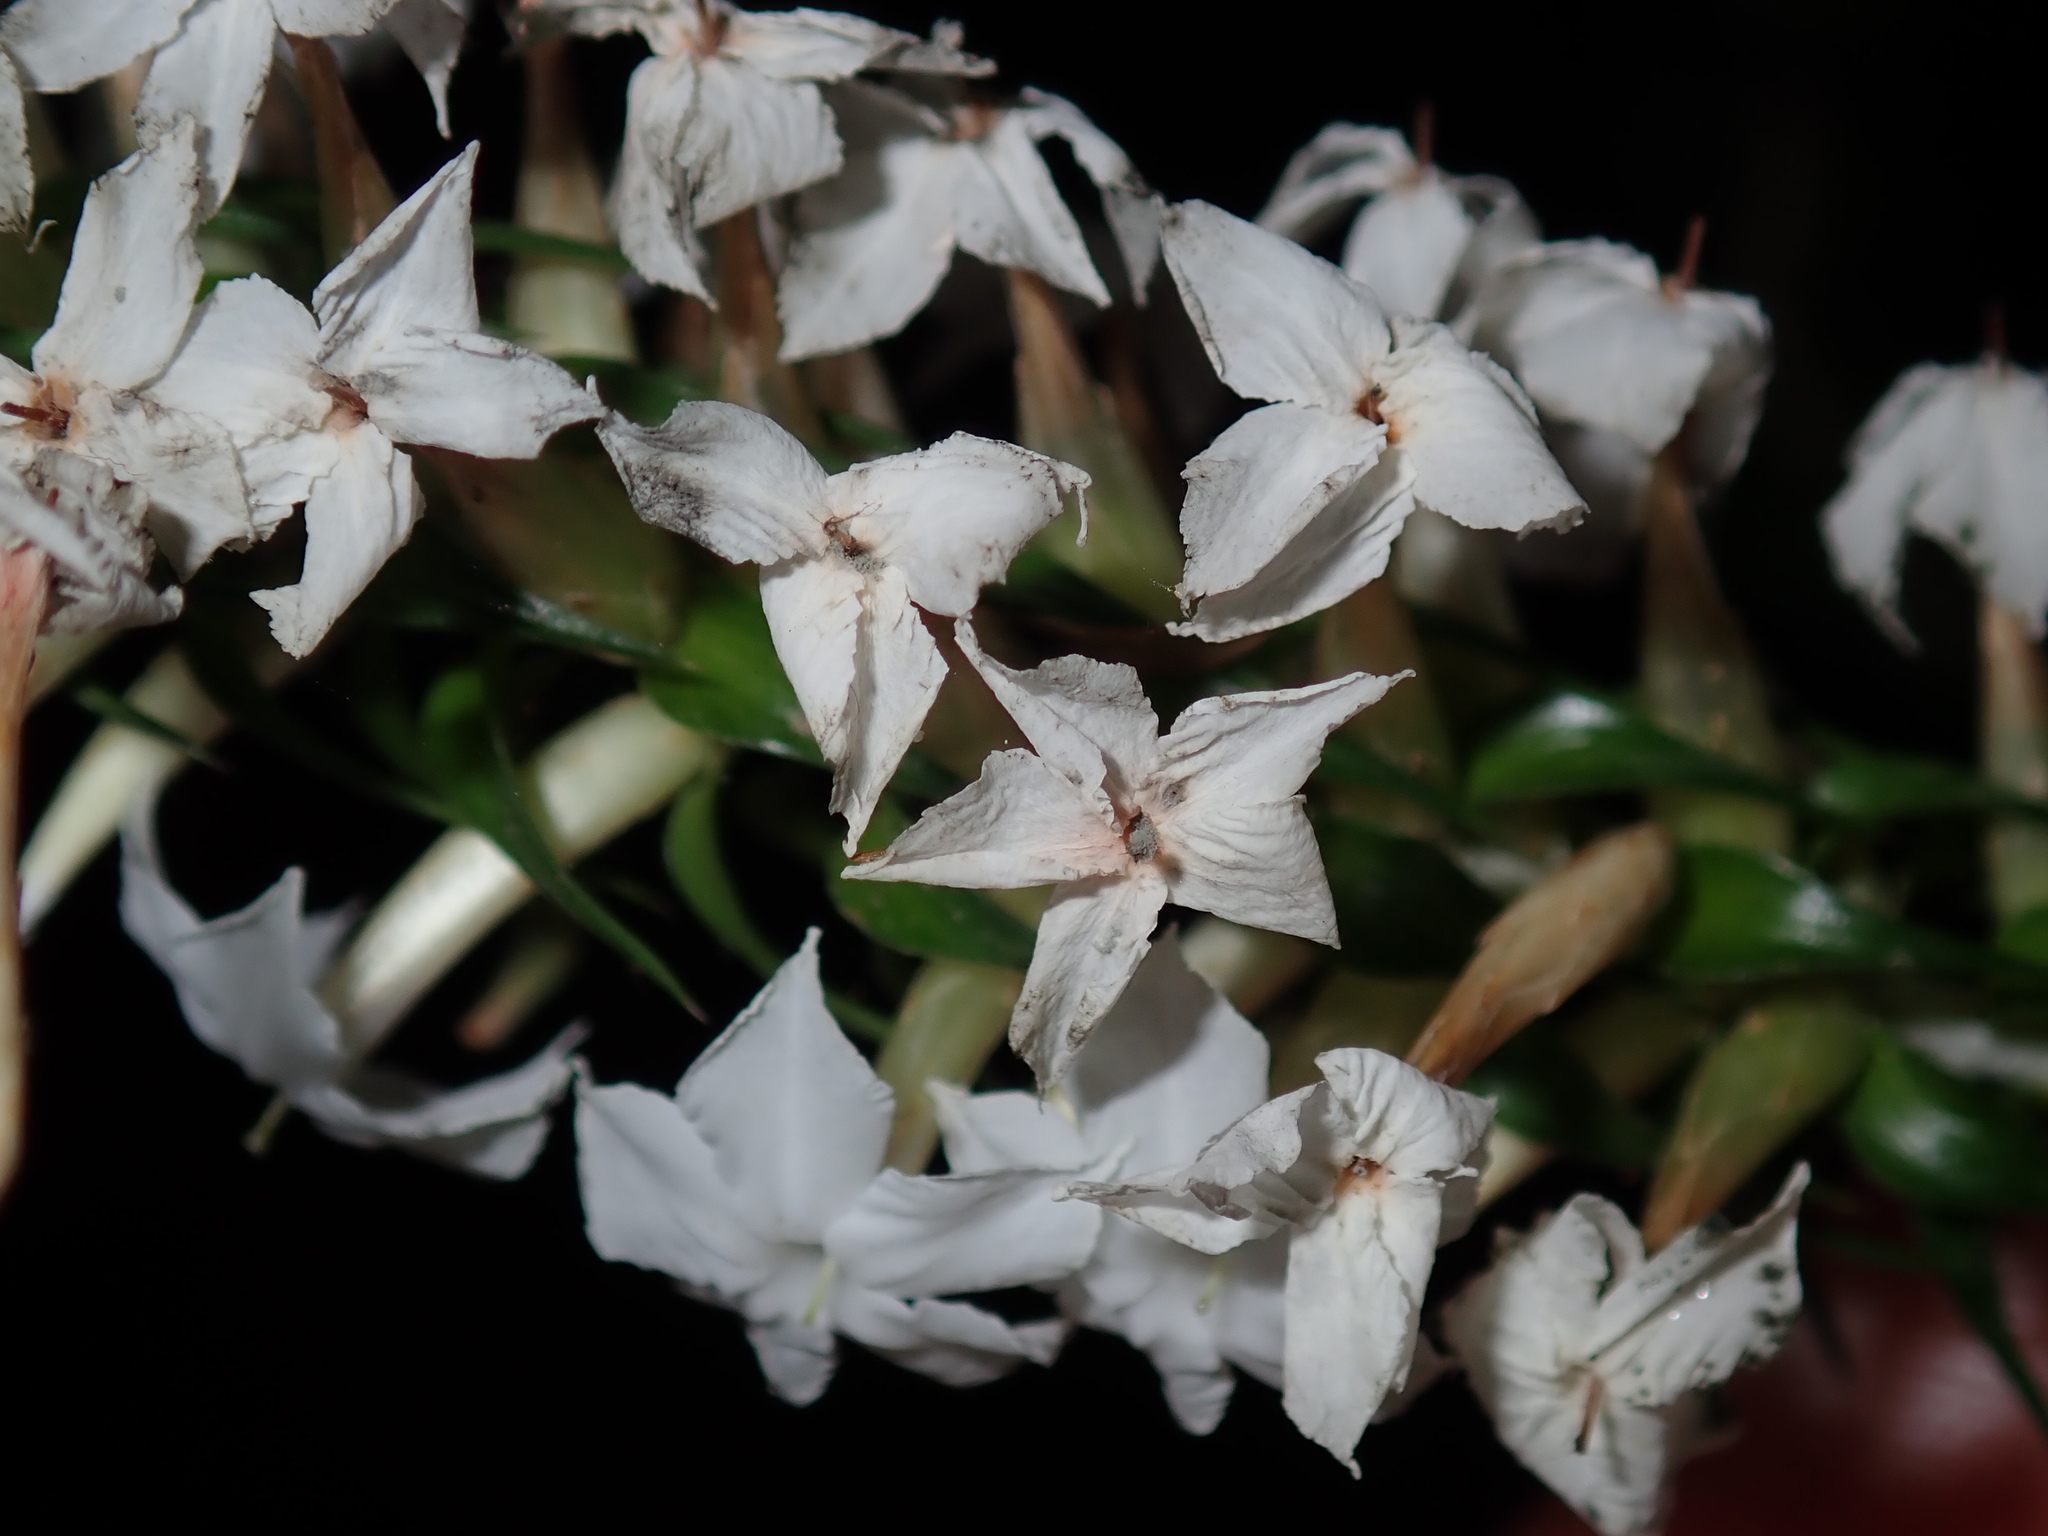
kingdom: Plantae
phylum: Tracheophyta
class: Magnoliopsida
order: Ericales
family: Ericaceae
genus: Woollsia
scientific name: Woollsia pungens
